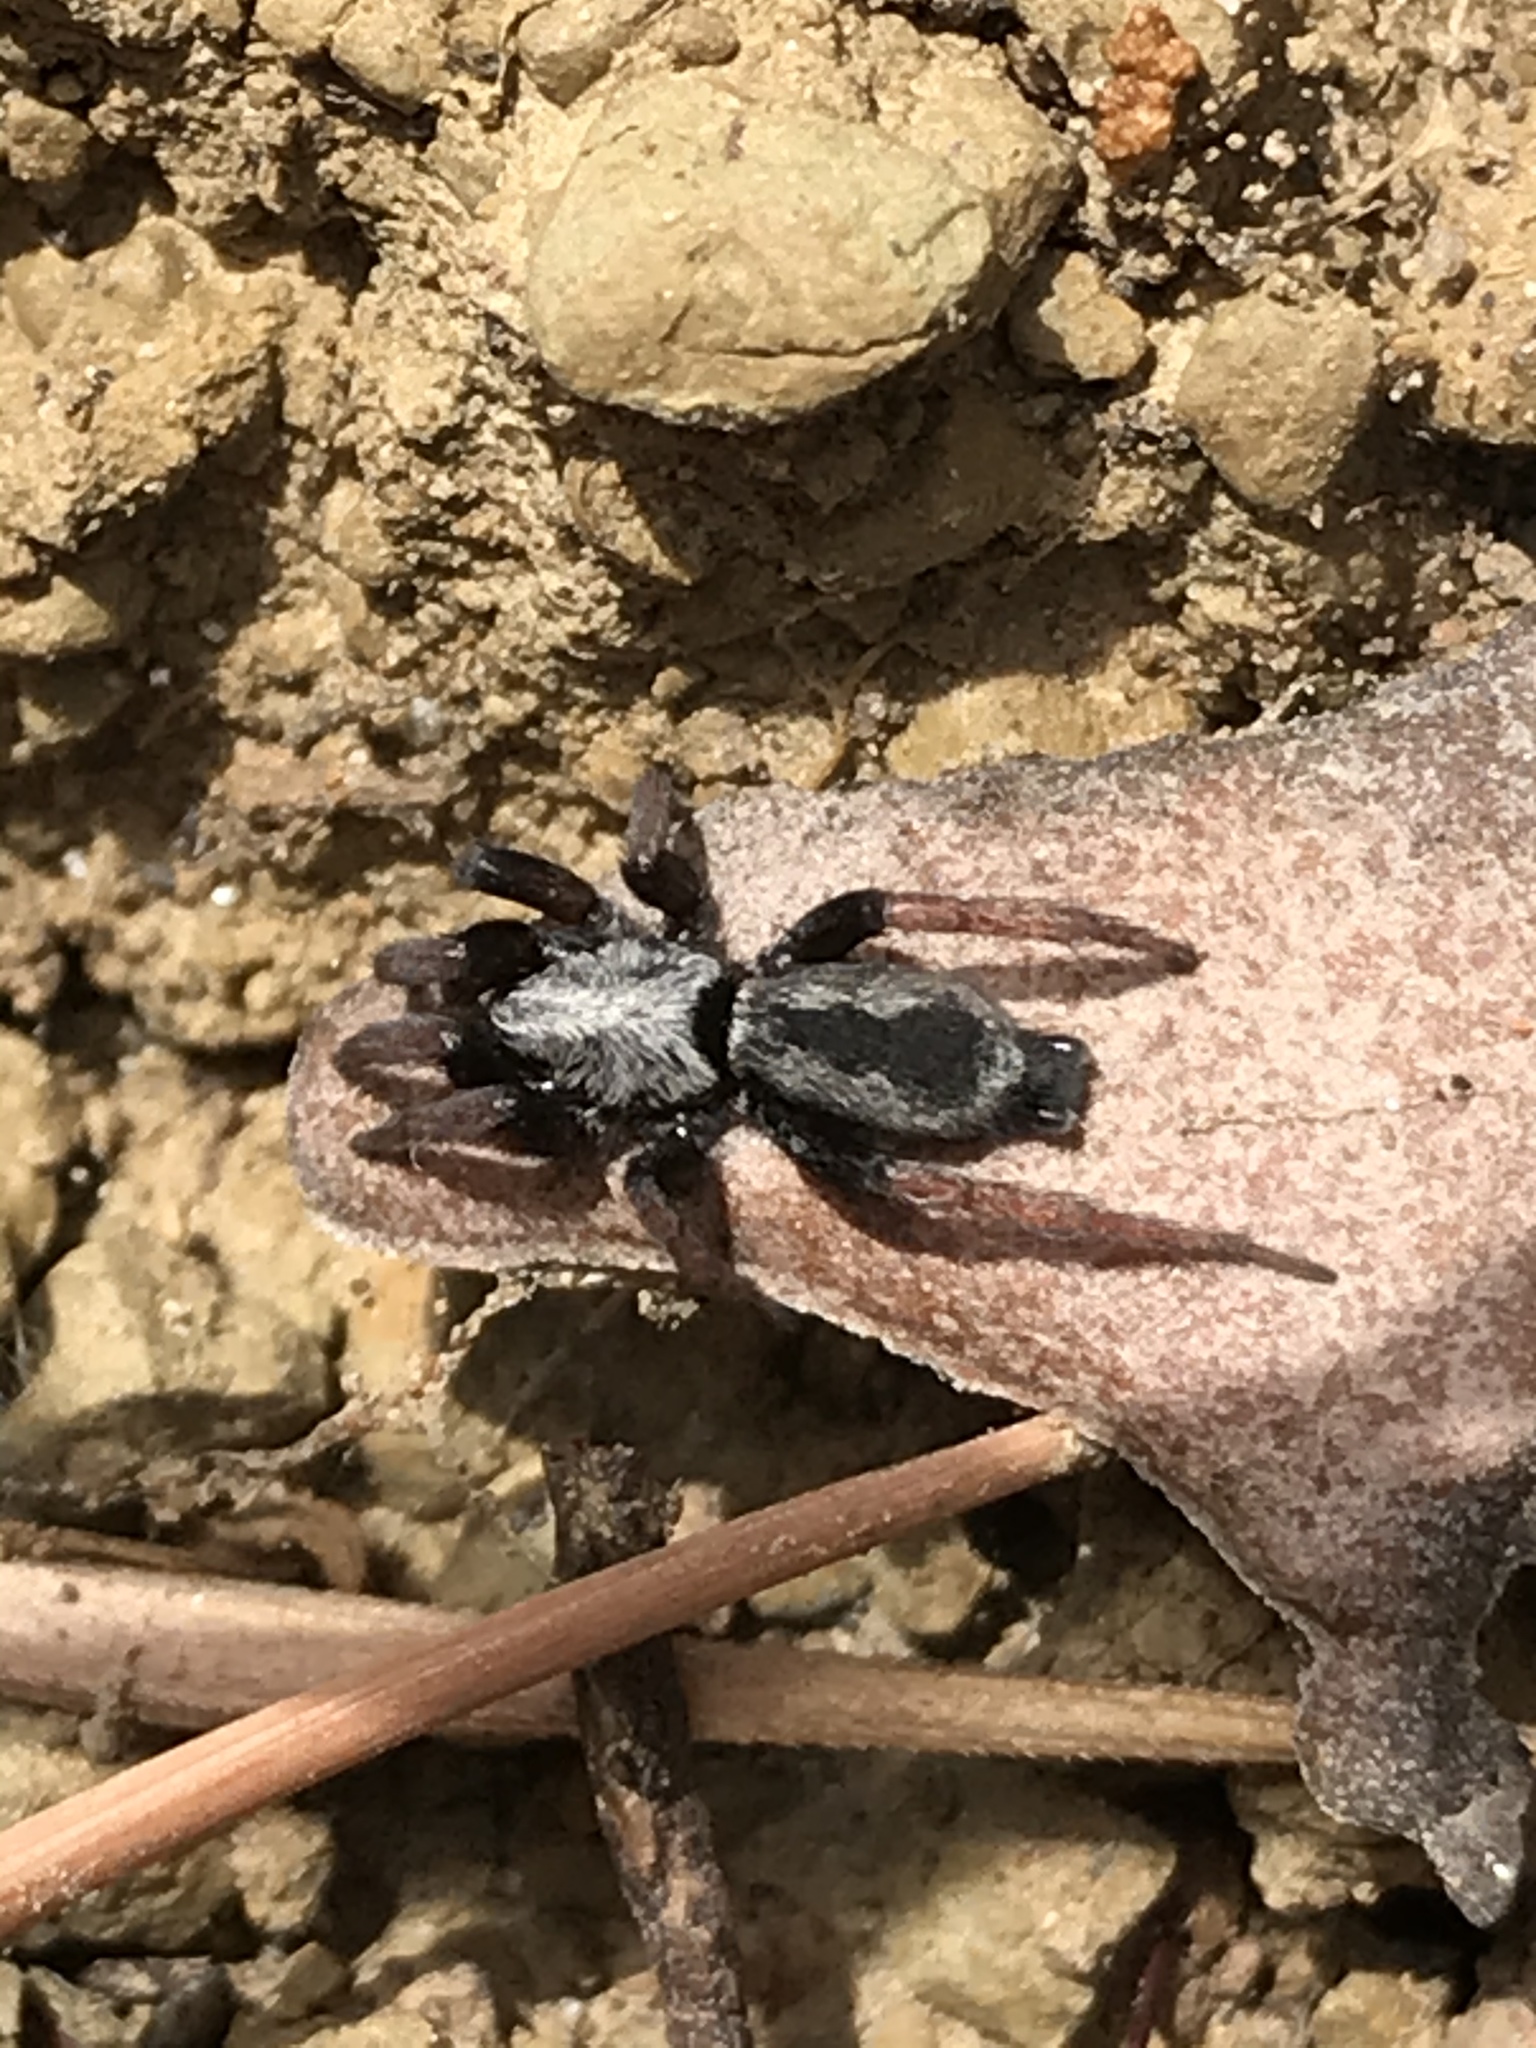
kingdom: Animalia
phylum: Arthropoda
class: Arachnida
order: Araneae
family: Gnaphosidae
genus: Sergiolus
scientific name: Sergiolus angustus
